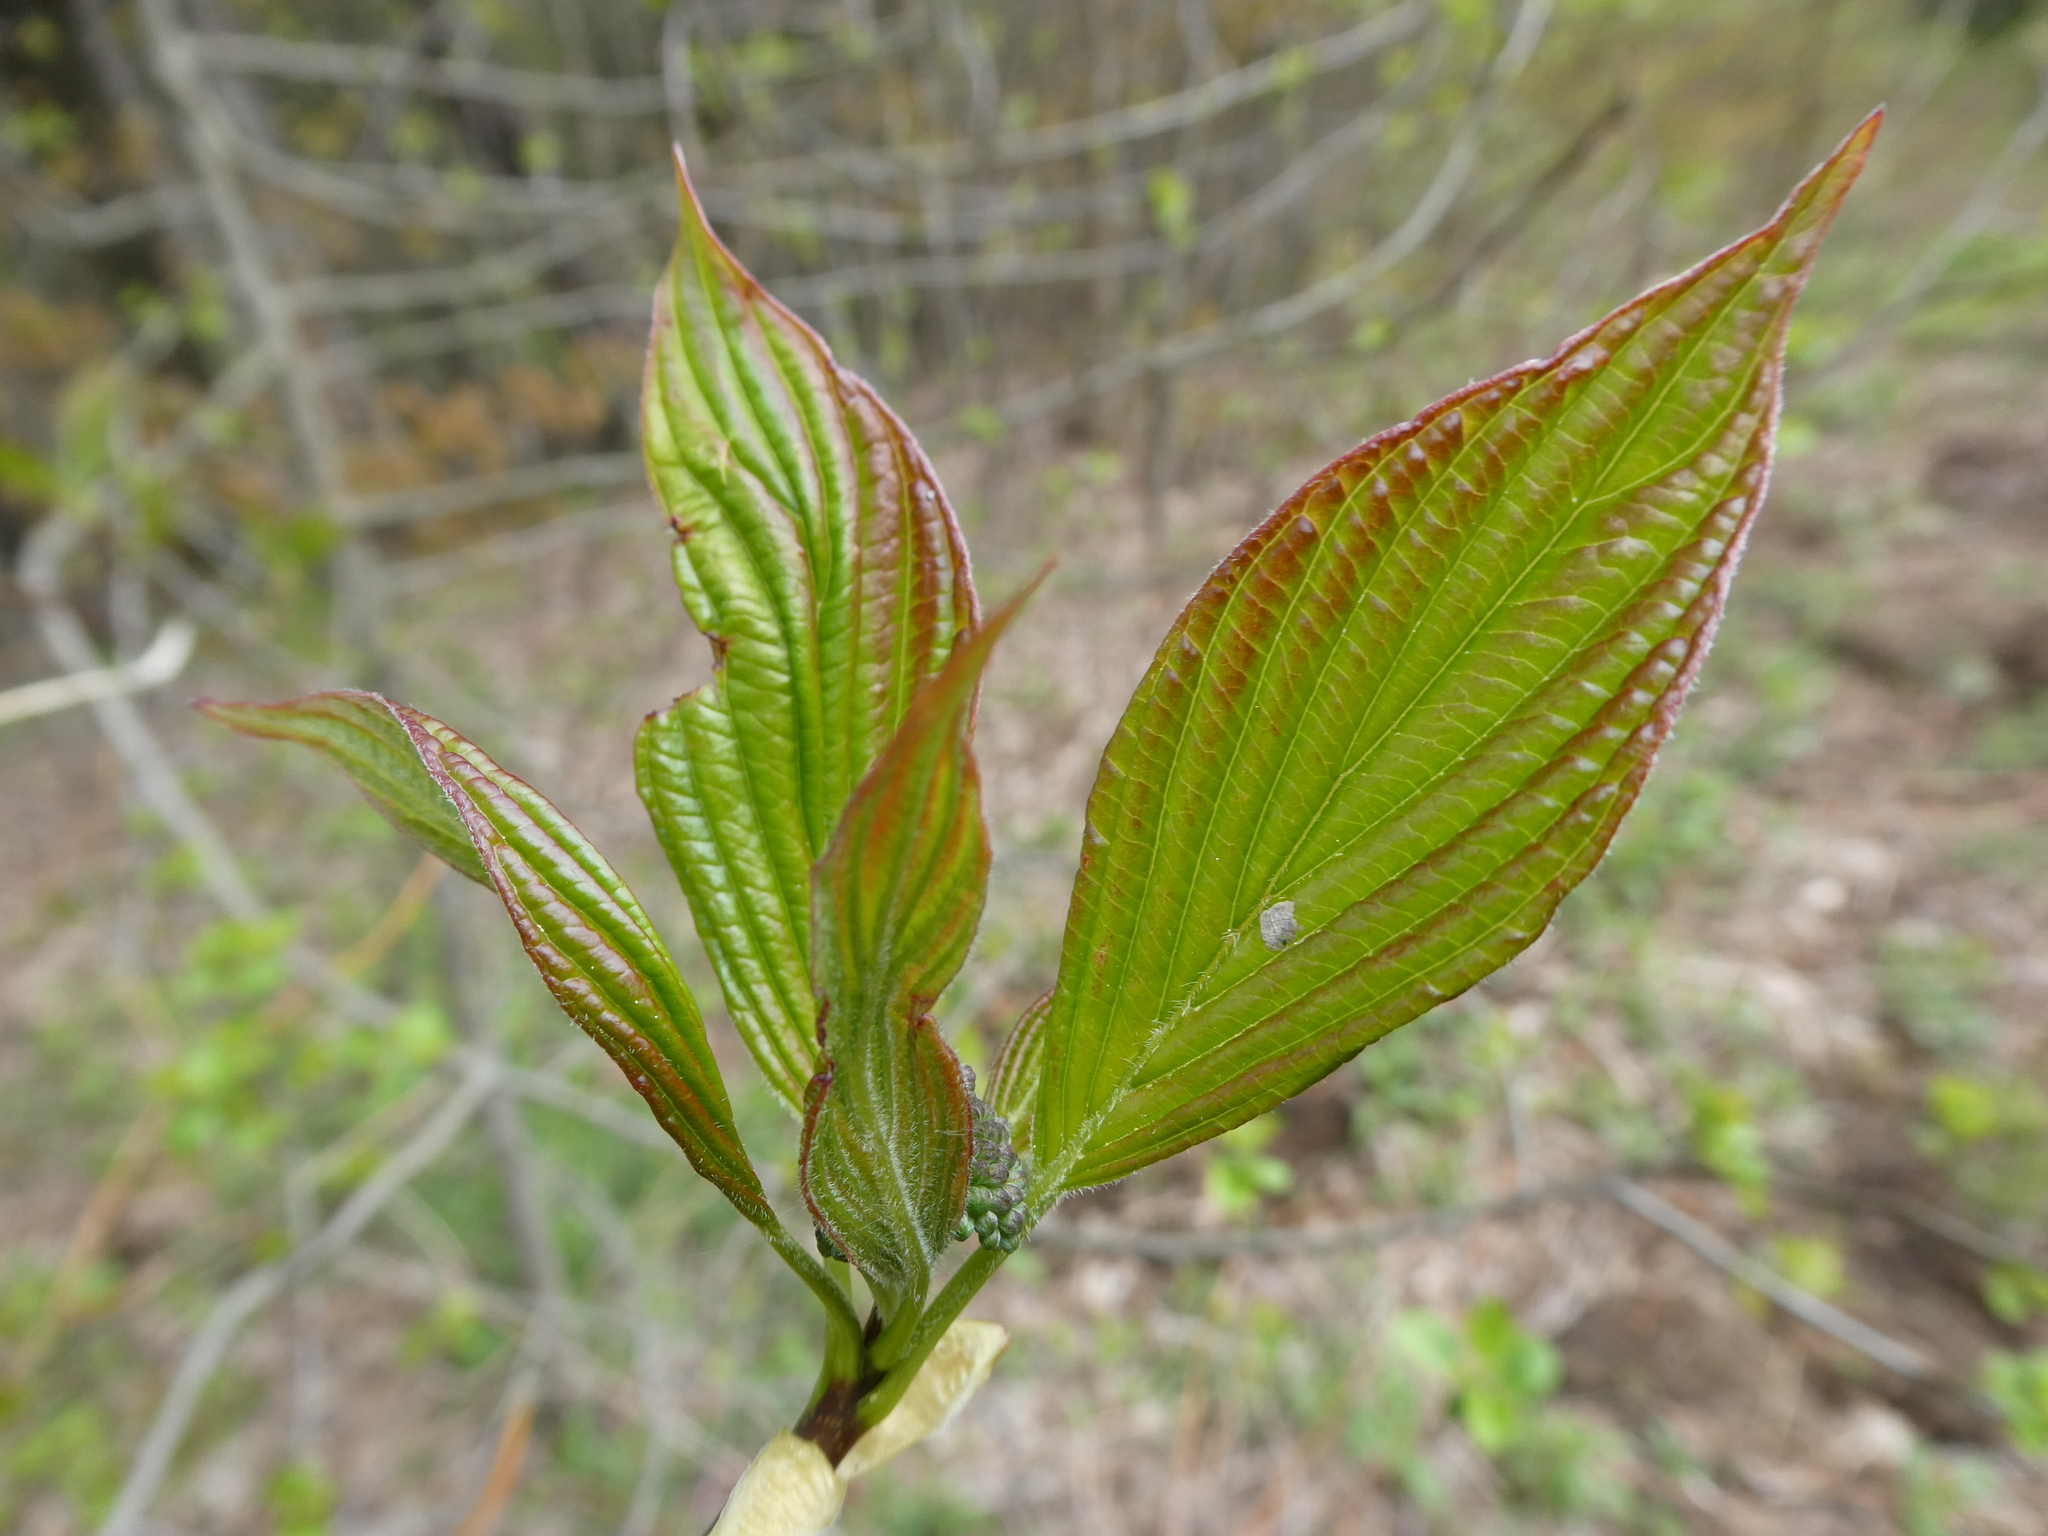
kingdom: Plantae
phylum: Tracheophyta
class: Magnoliopsida
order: Cornales
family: Cornaceae
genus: Cornus
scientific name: Cornus alternifolia
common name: Pagoda dogwood
